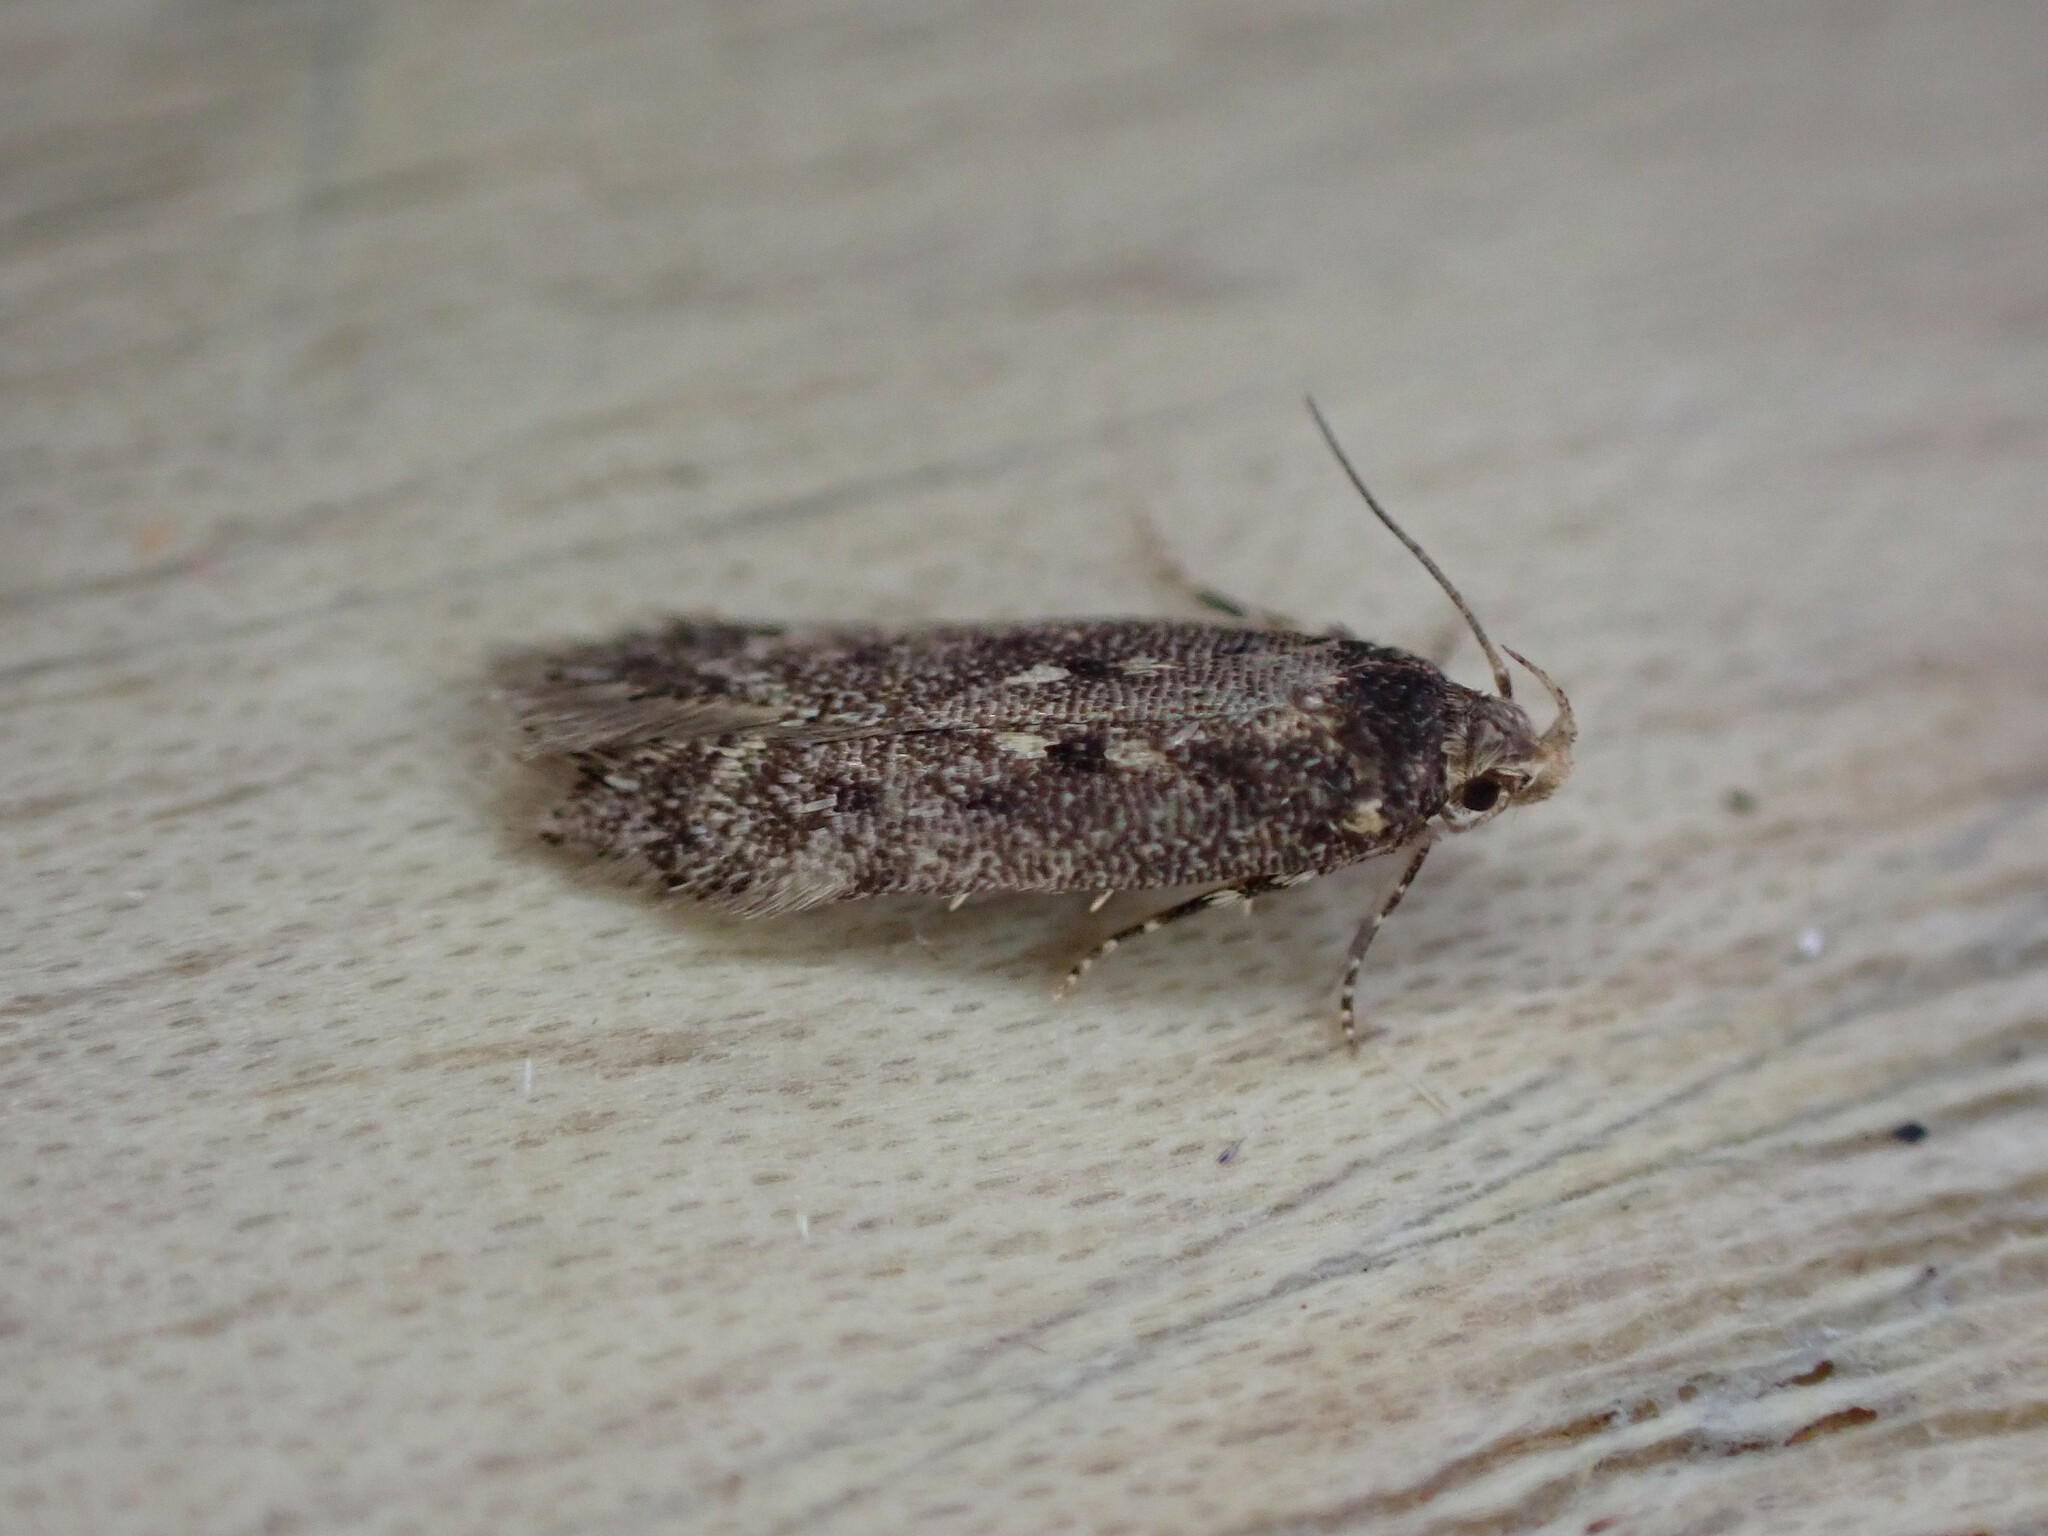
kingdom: Animalia
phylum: Arthropoda
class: Insecta
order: Lepidoptera
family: Gelechiidae
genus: Bryotropha
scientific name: Bryotropha affinis
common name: Dark groundling
